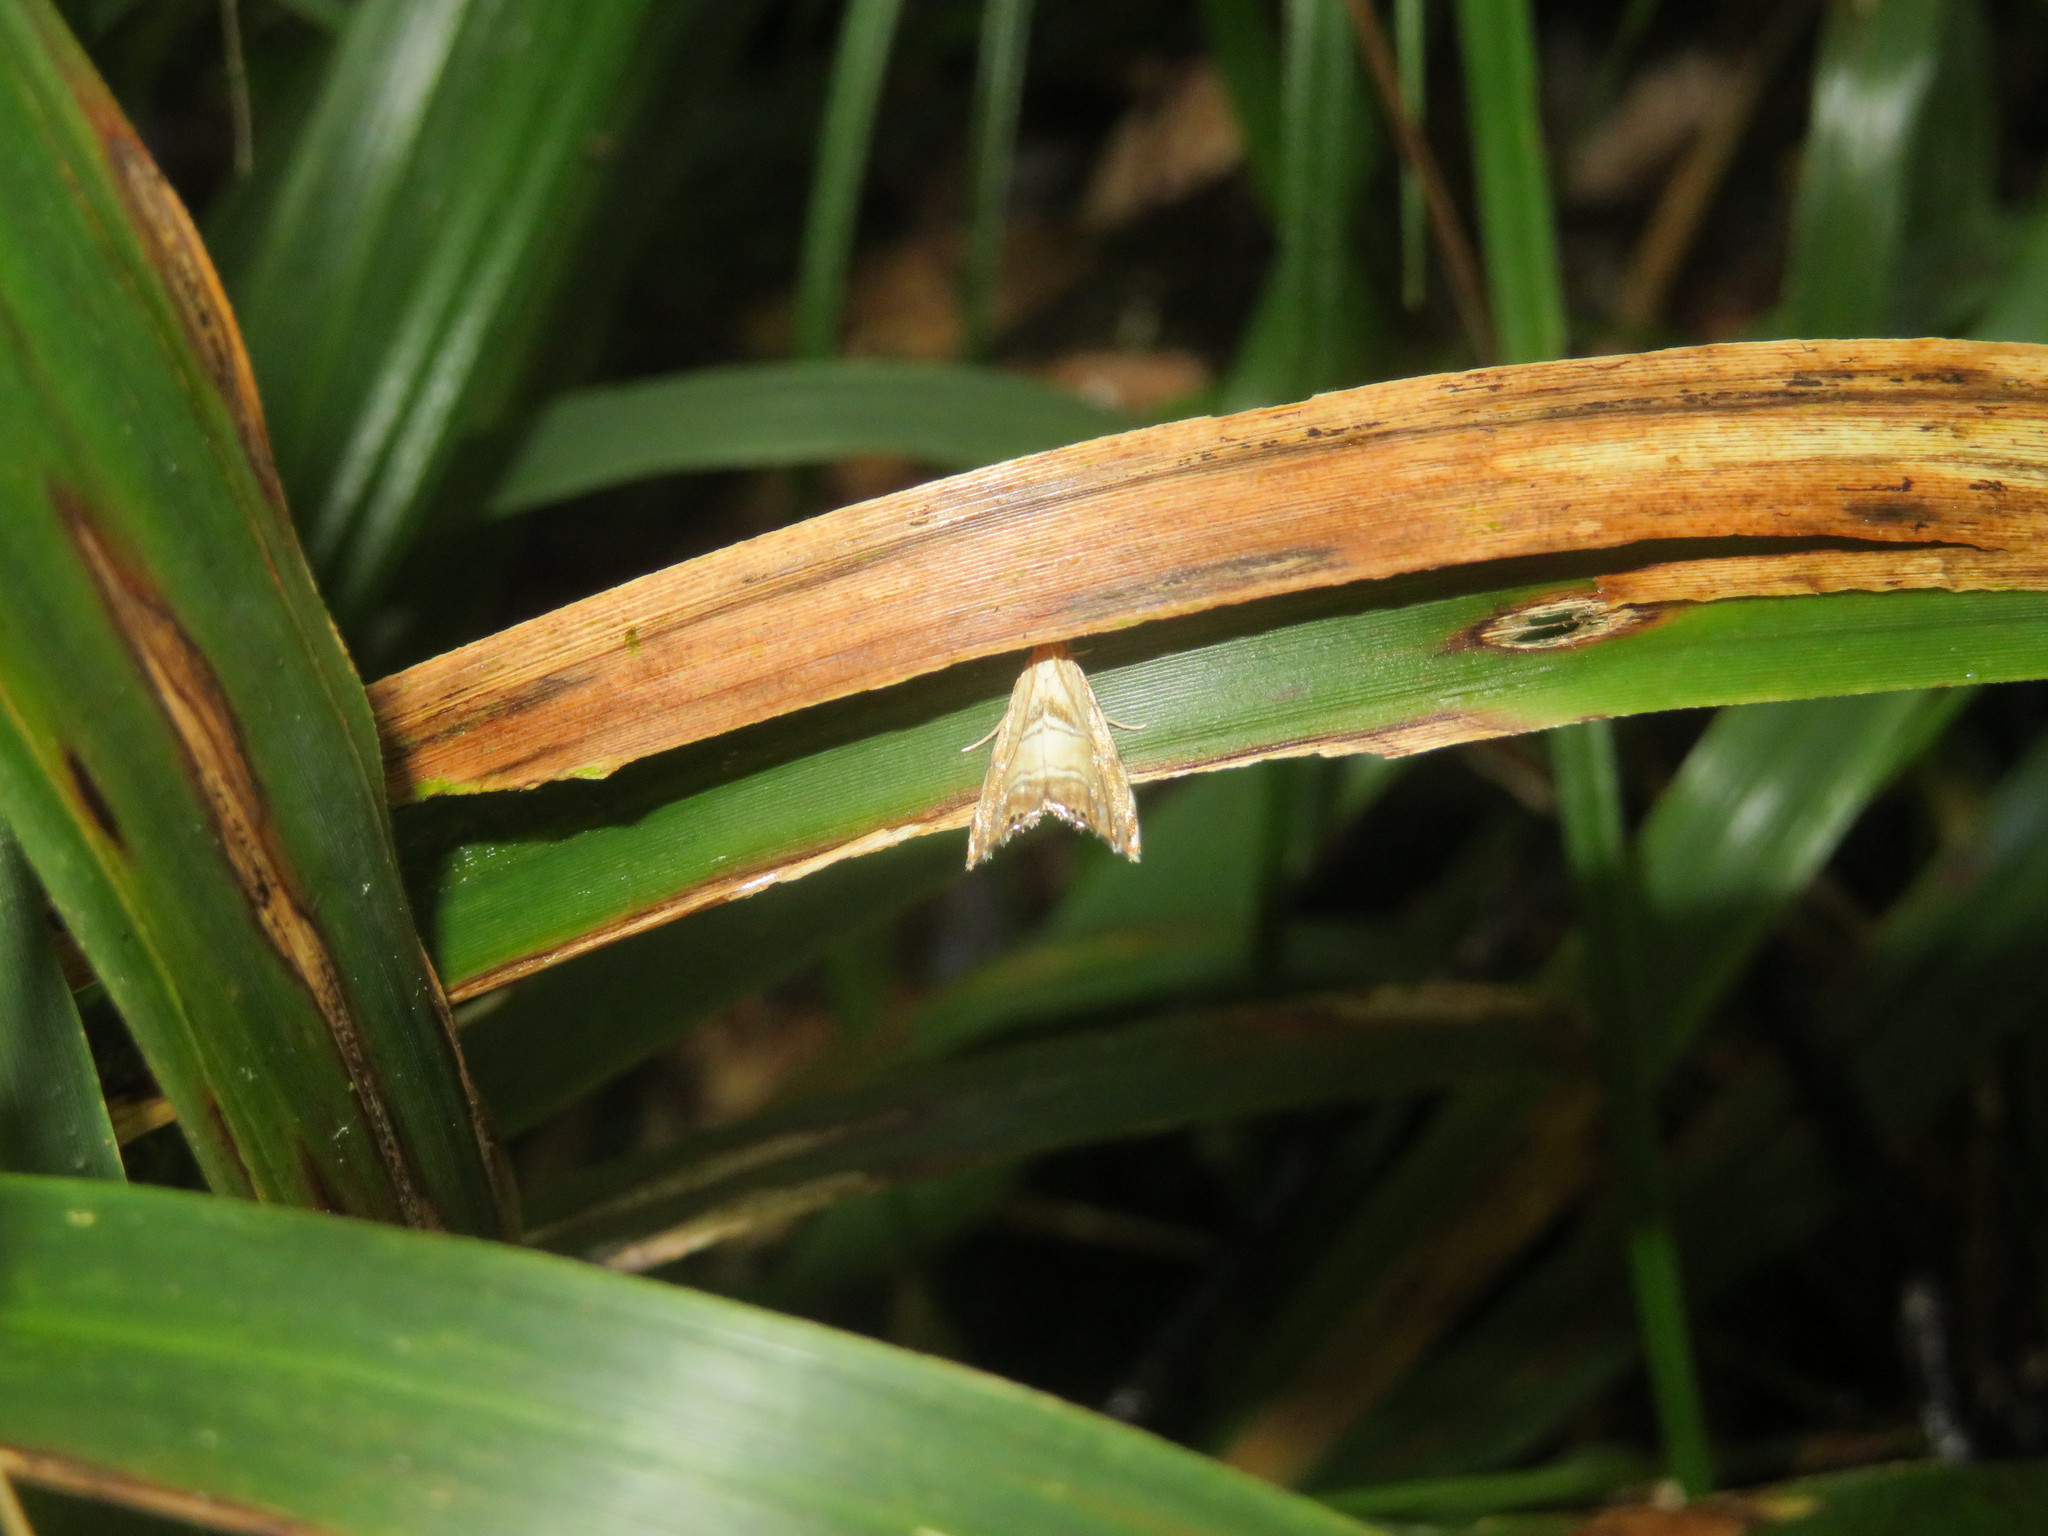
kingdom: Animalia
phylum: Arthropoda
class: Insecta
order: Lepidoptera
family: Crambidae
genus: Glaucocharis
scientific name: Glaucocharis auriscriptella
